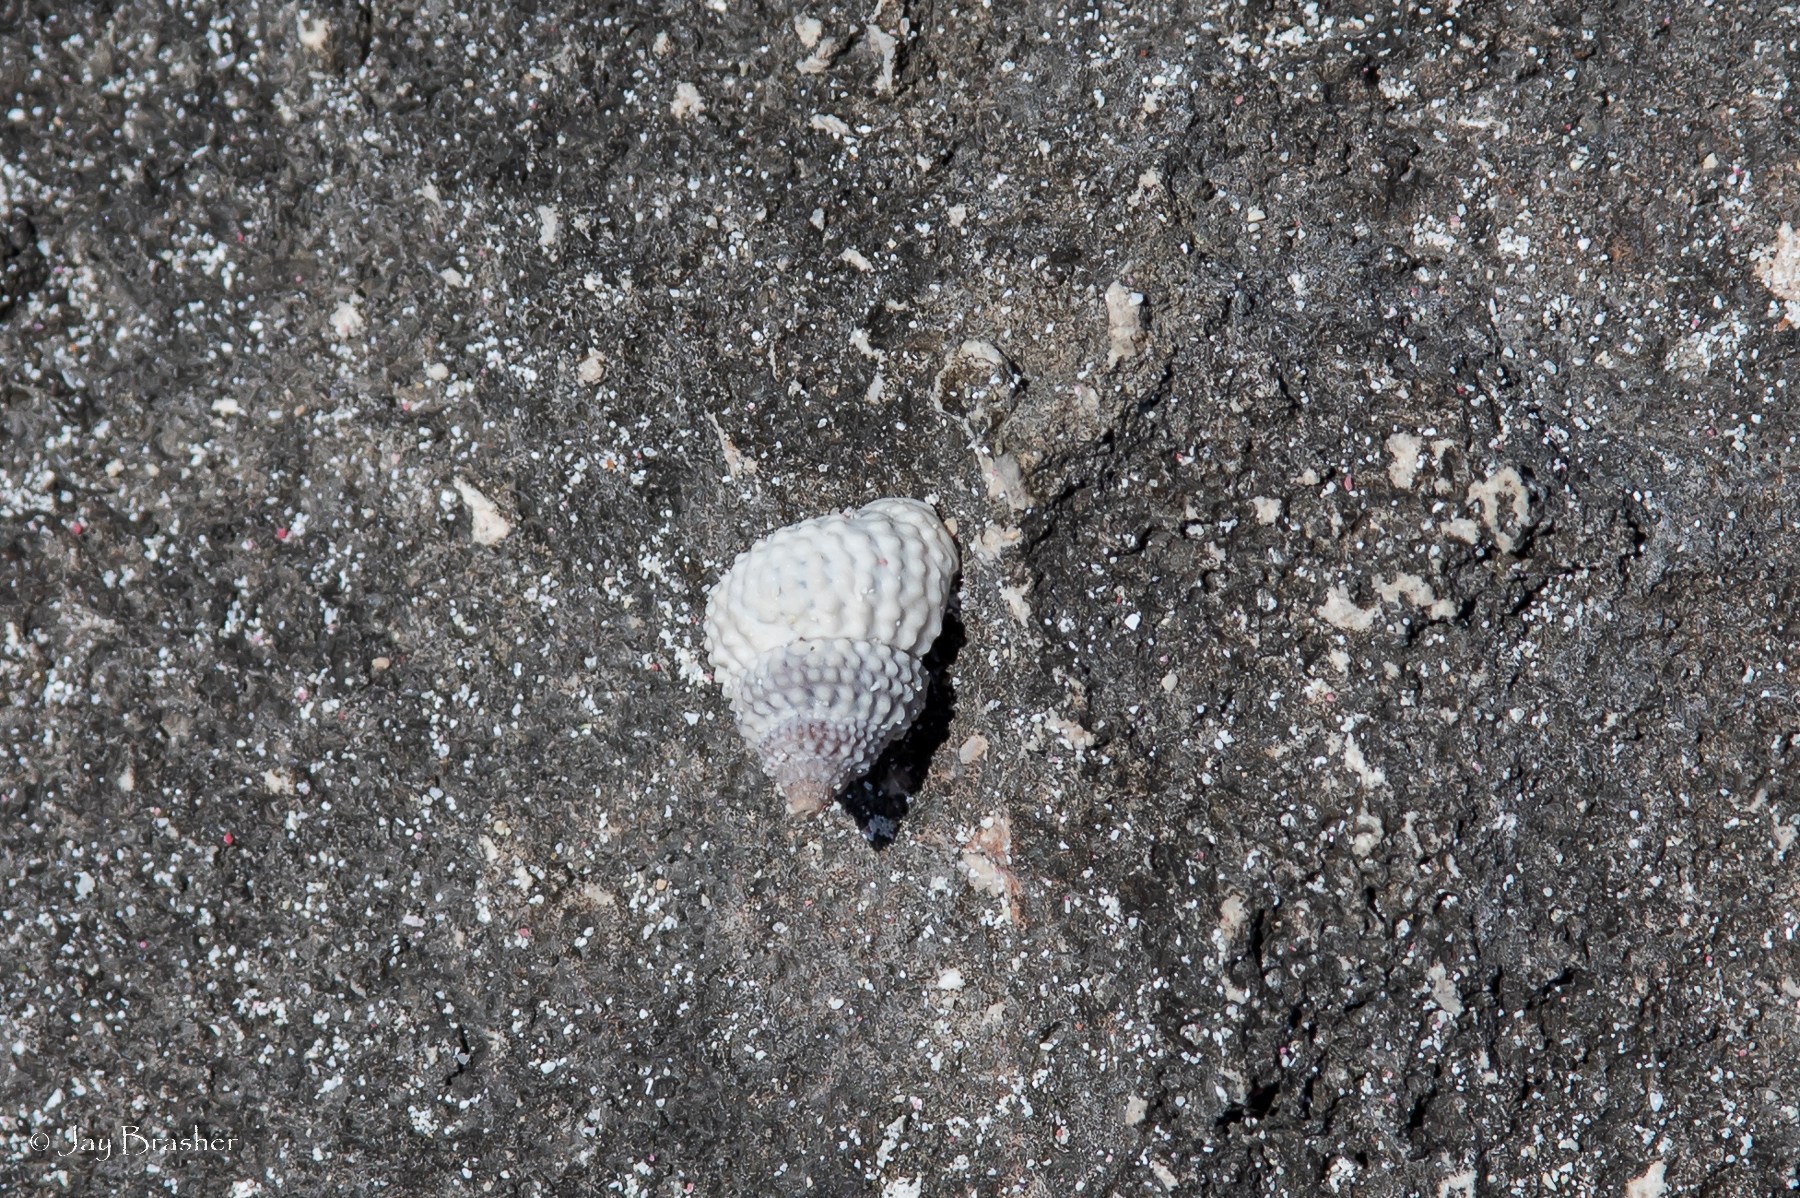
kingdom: Animalia
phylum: Mollusca
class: Gastropoda
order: Littorinimorpha
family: Littorinidae
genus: Cenchritis
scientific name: Cenchritis muricatus
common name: Beaded periwinkle
